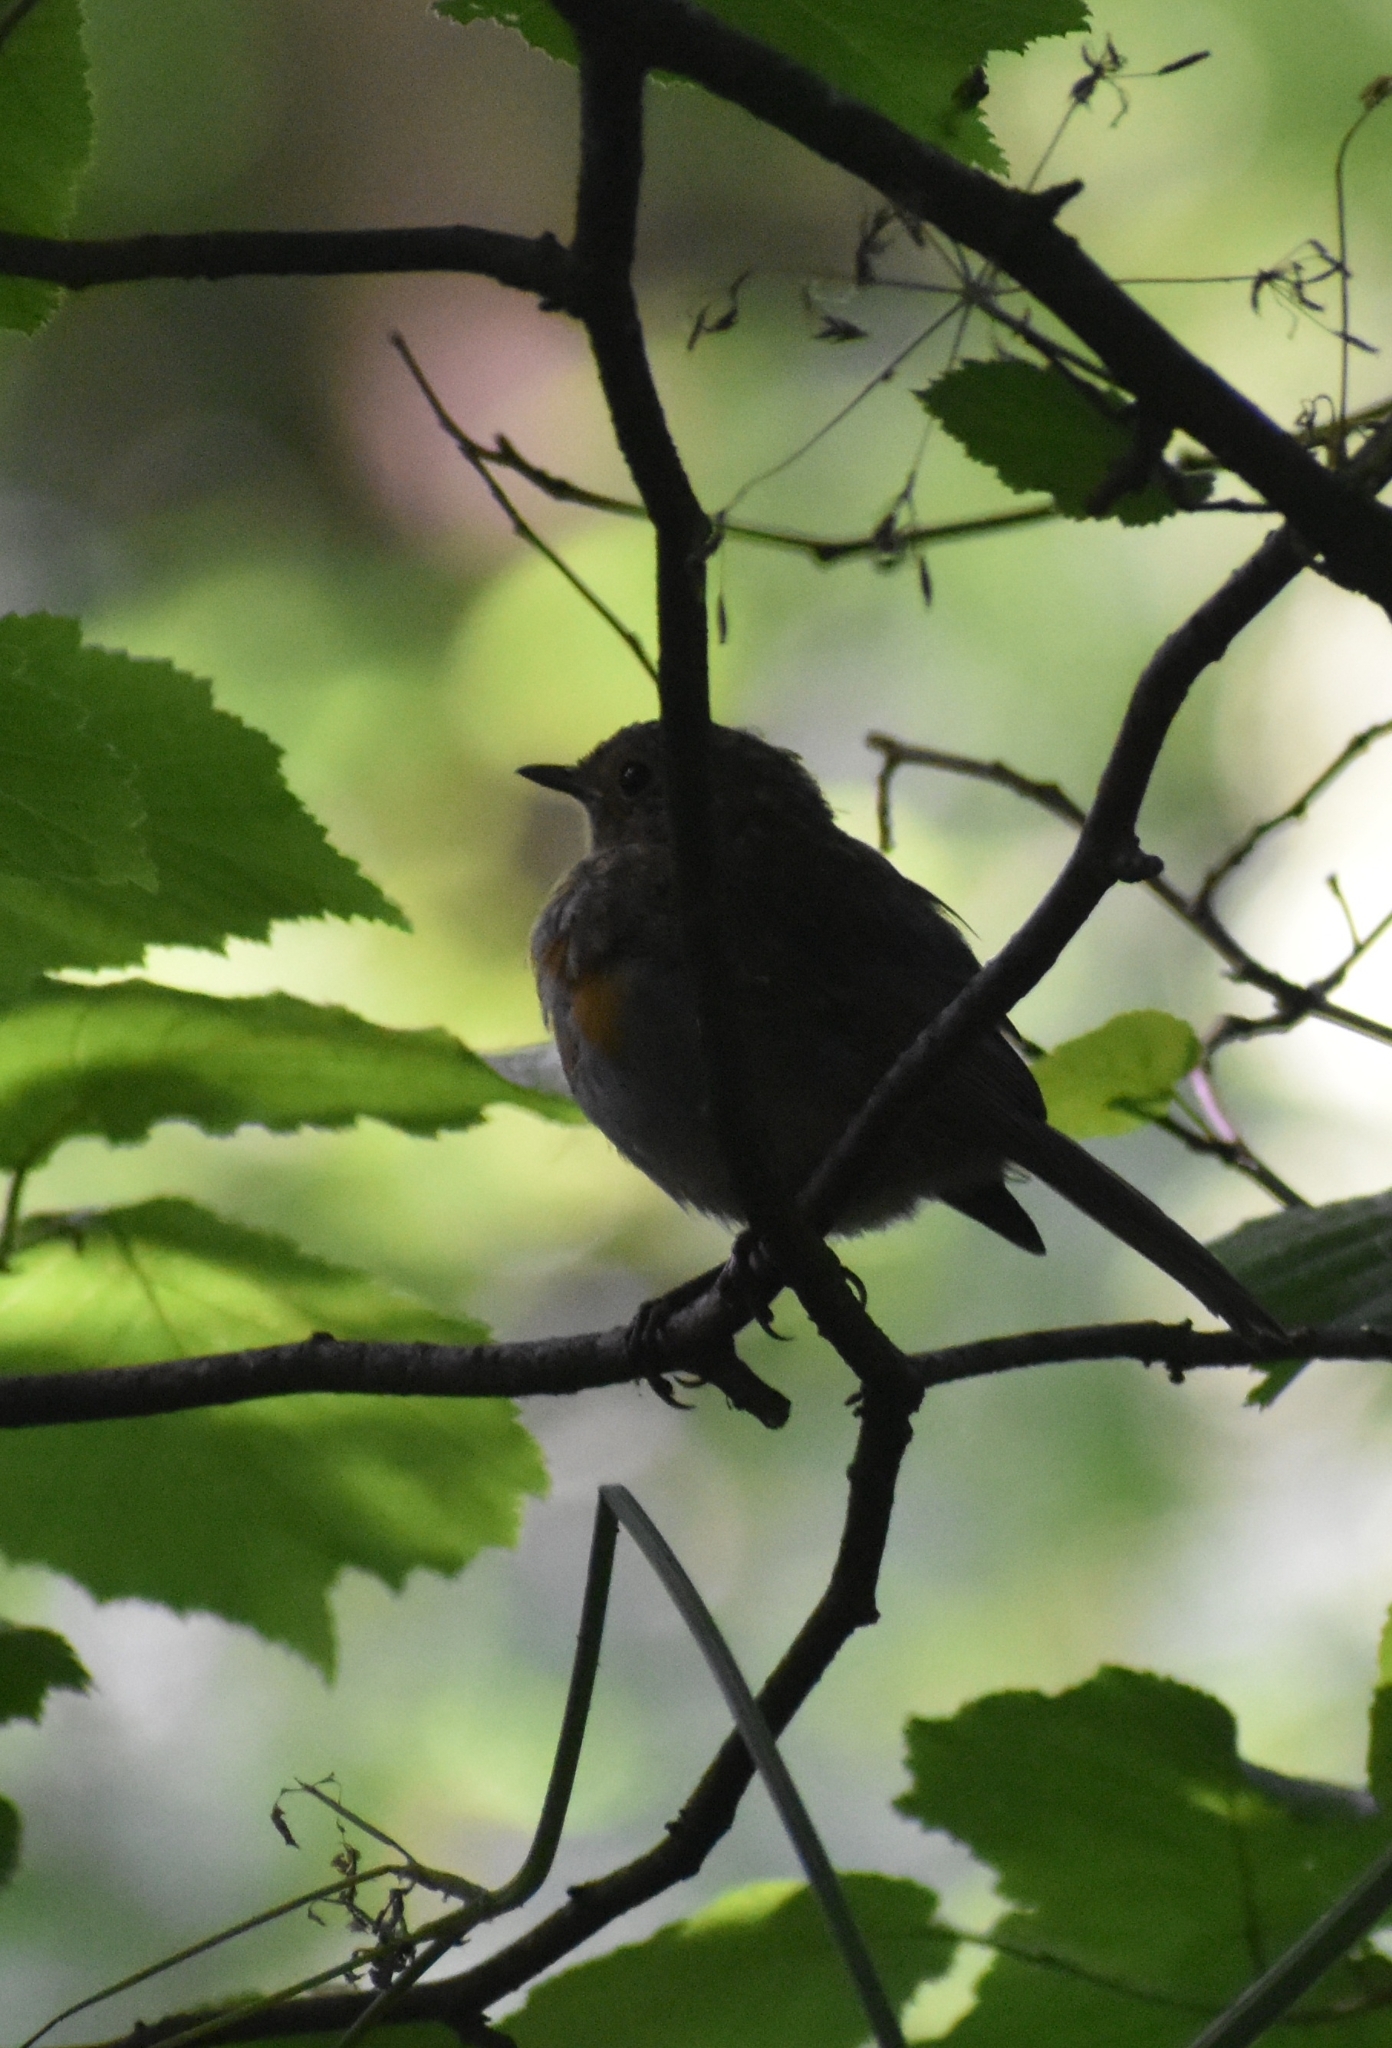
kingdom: Animalia
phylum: Chordata
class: Aves
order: Passeriformes
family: Muscicapidae
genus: Erithacus
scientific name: Erithacus rubecula
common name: European robin
